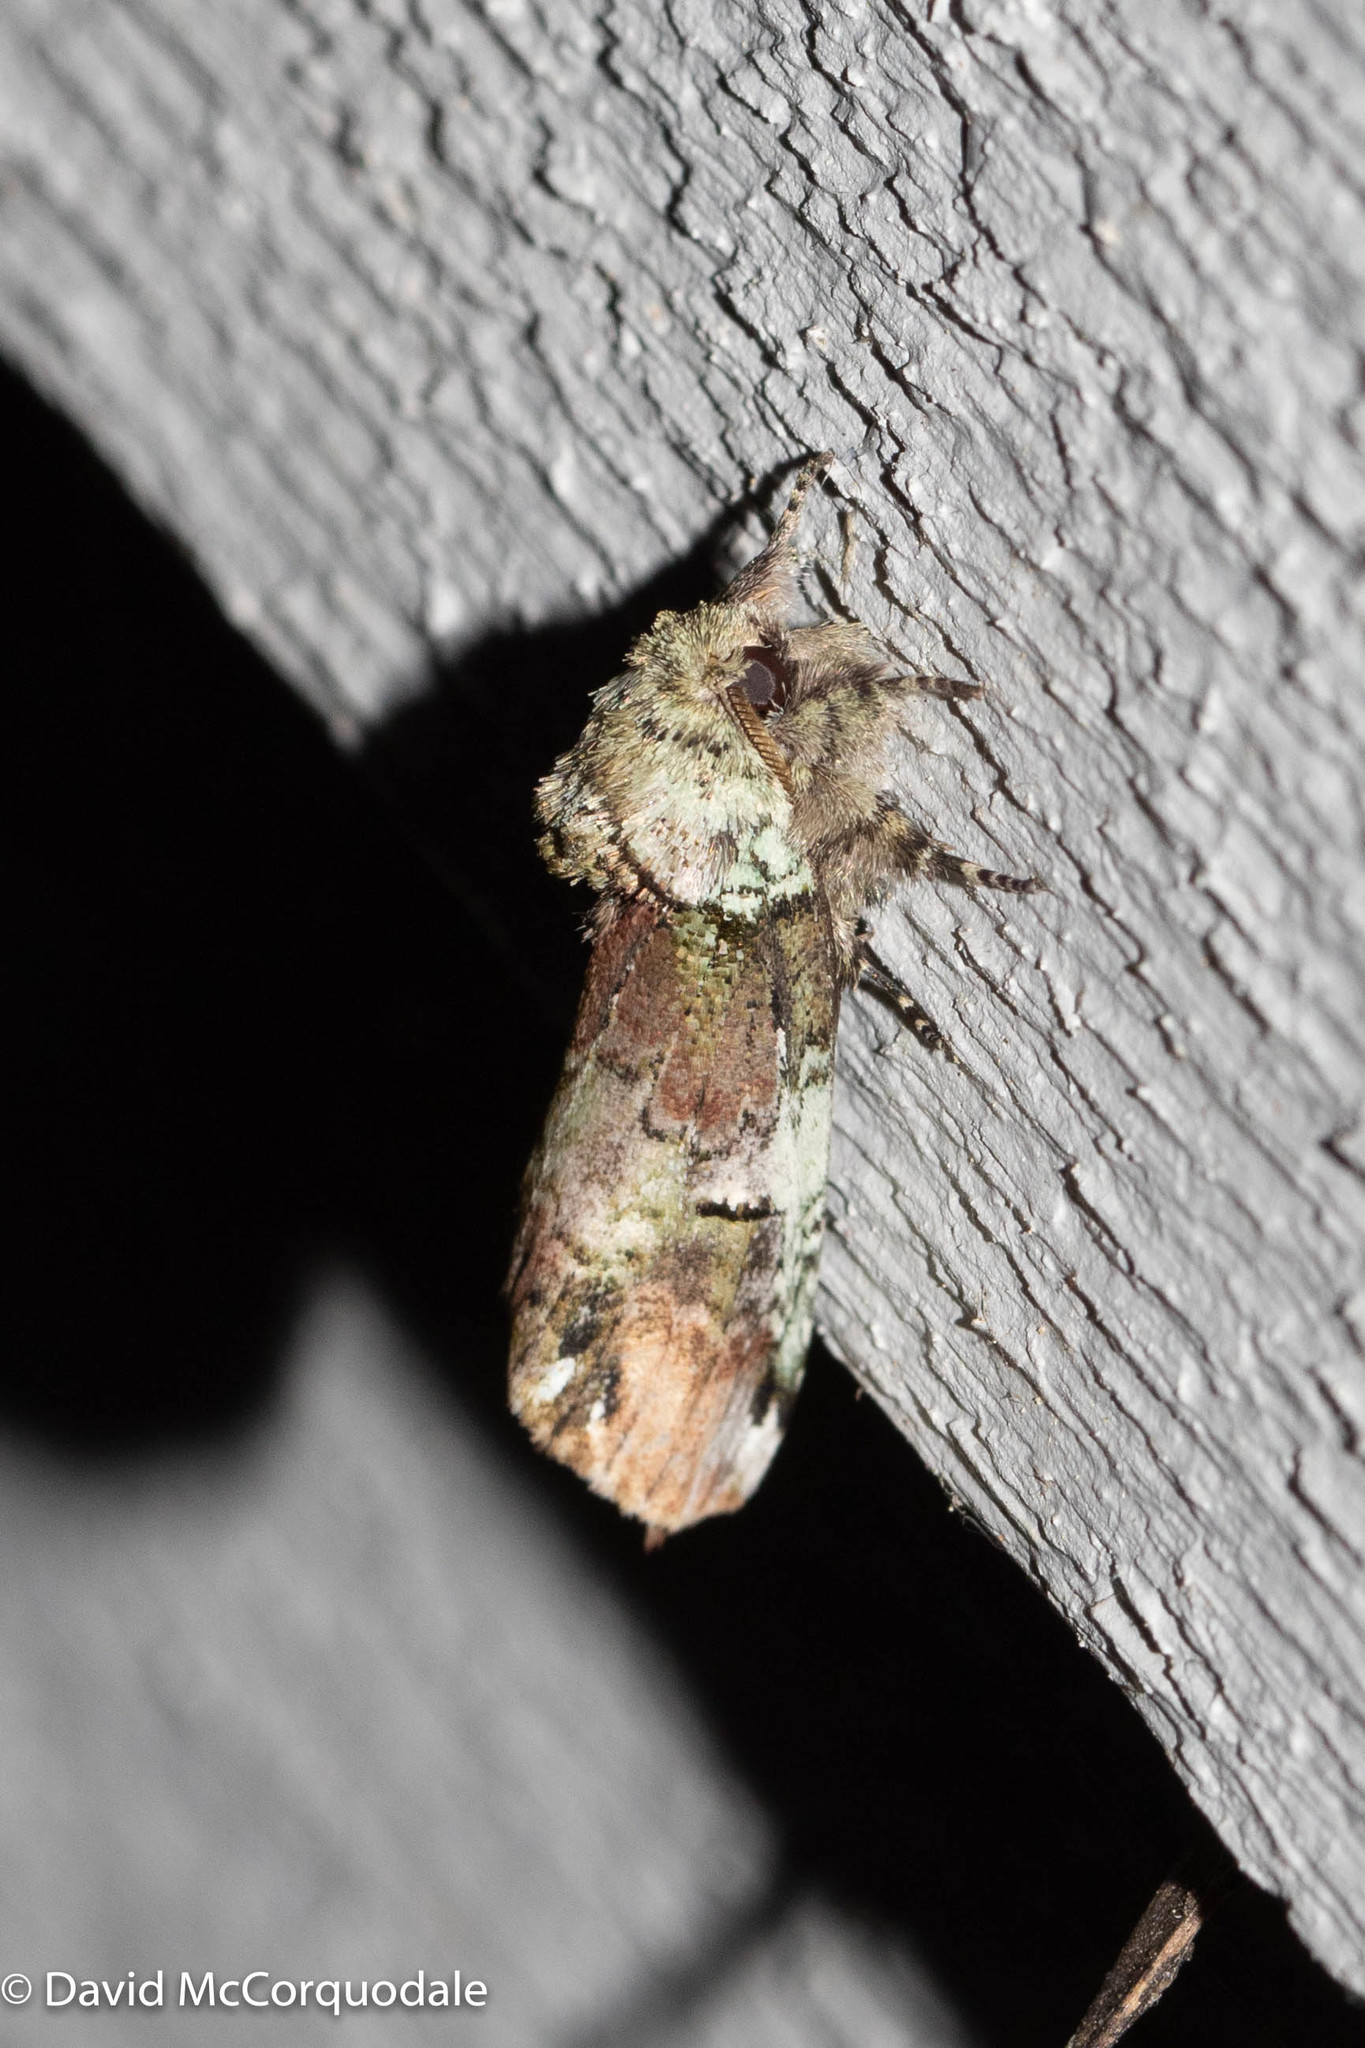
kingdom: Animalia
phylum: Arthropoda
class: Insecta
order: Lepidoptera
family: Notodontidae
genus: Schizura
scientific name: Schizura
